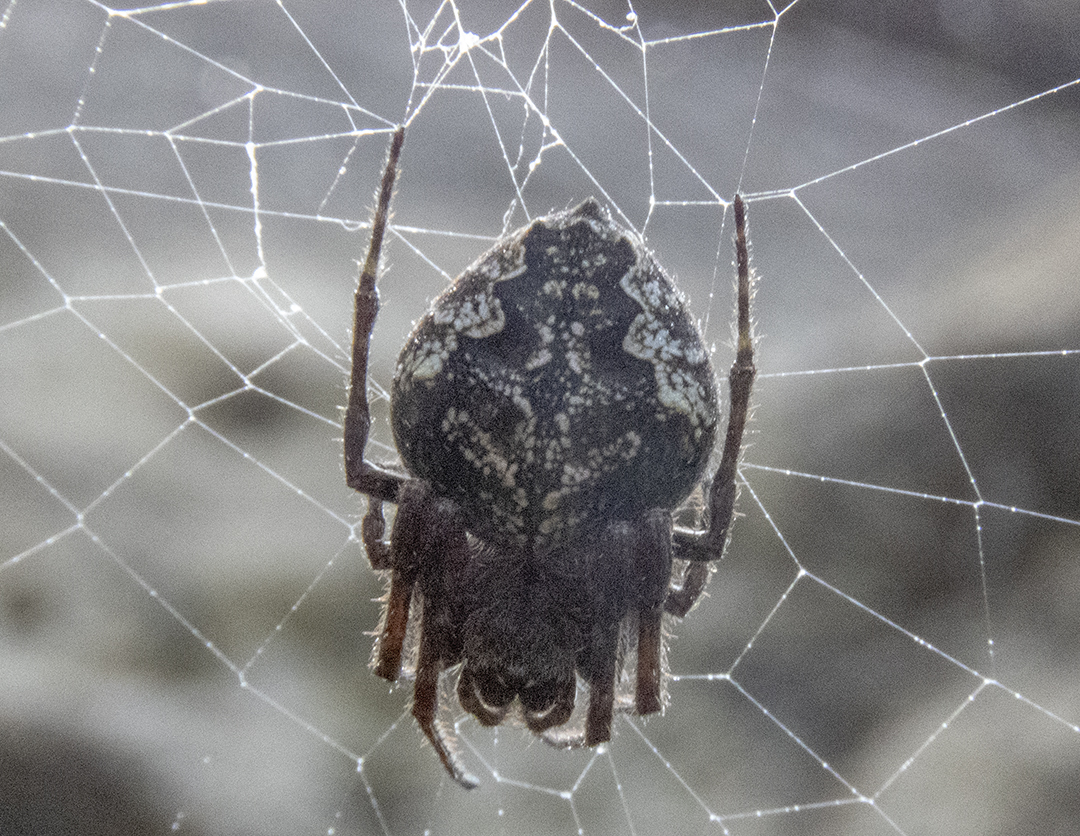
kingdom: Animalia
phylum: Arthropoda
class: Arachnida
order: Araneae
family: Araneidae
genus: Eriophora
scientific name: Eriophora pustulosa
